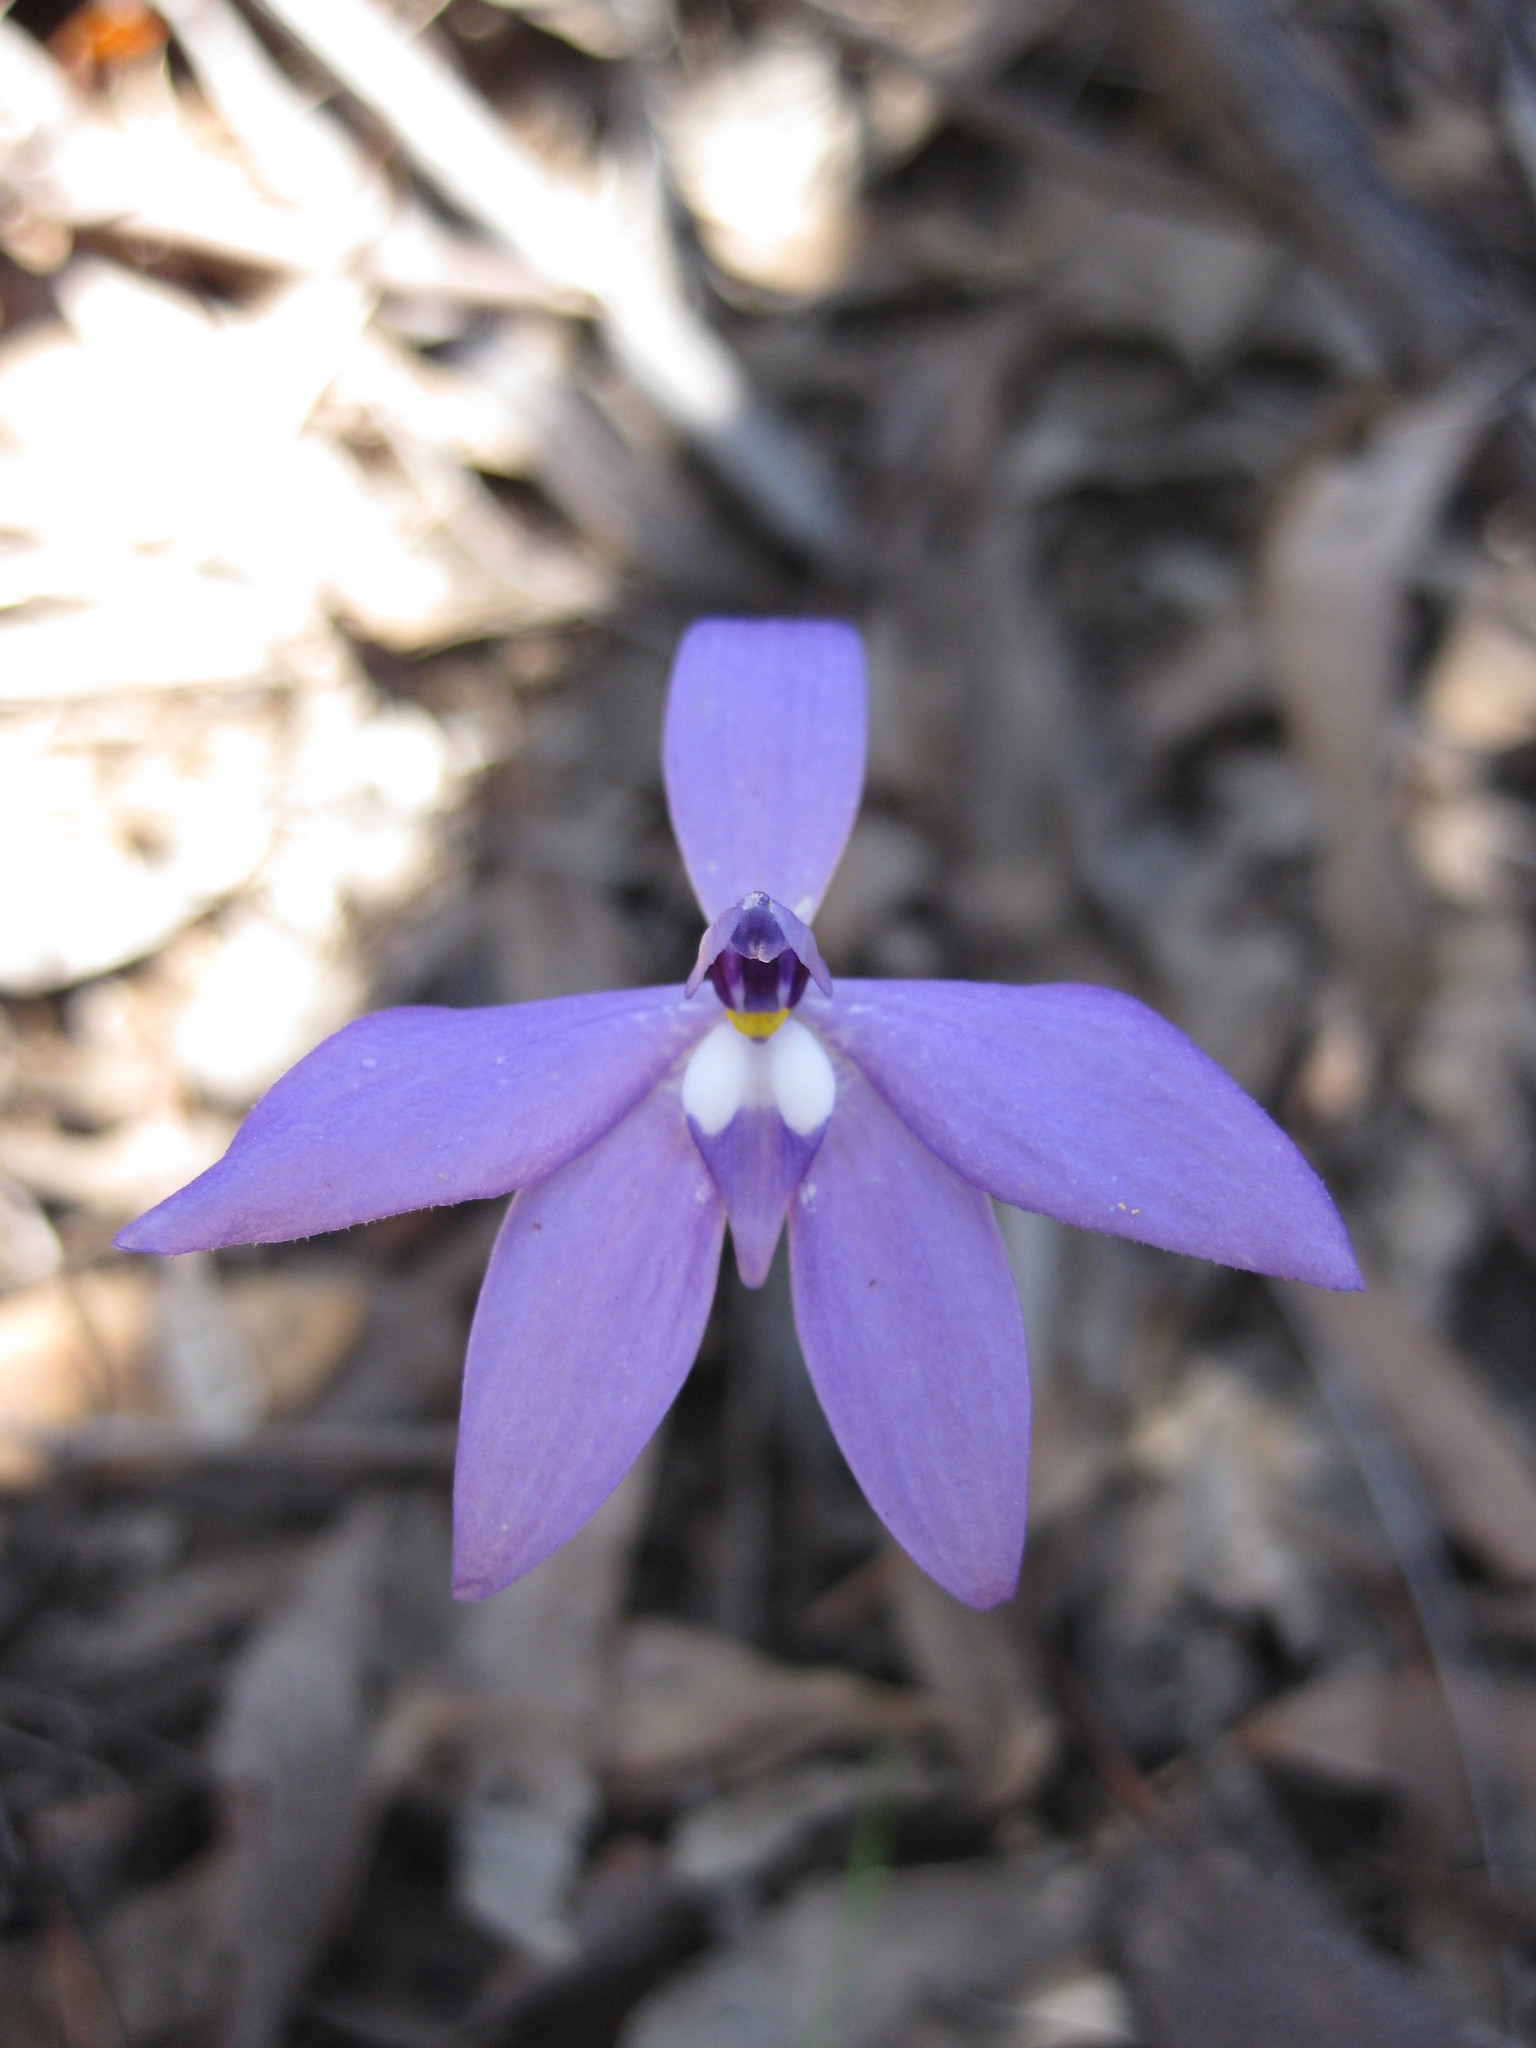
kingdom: Plantae
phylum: Tracheophyta
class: Liliopsida
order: Asparagales
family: Orchidaceae
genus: Caladenia
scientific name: Caladenia major
